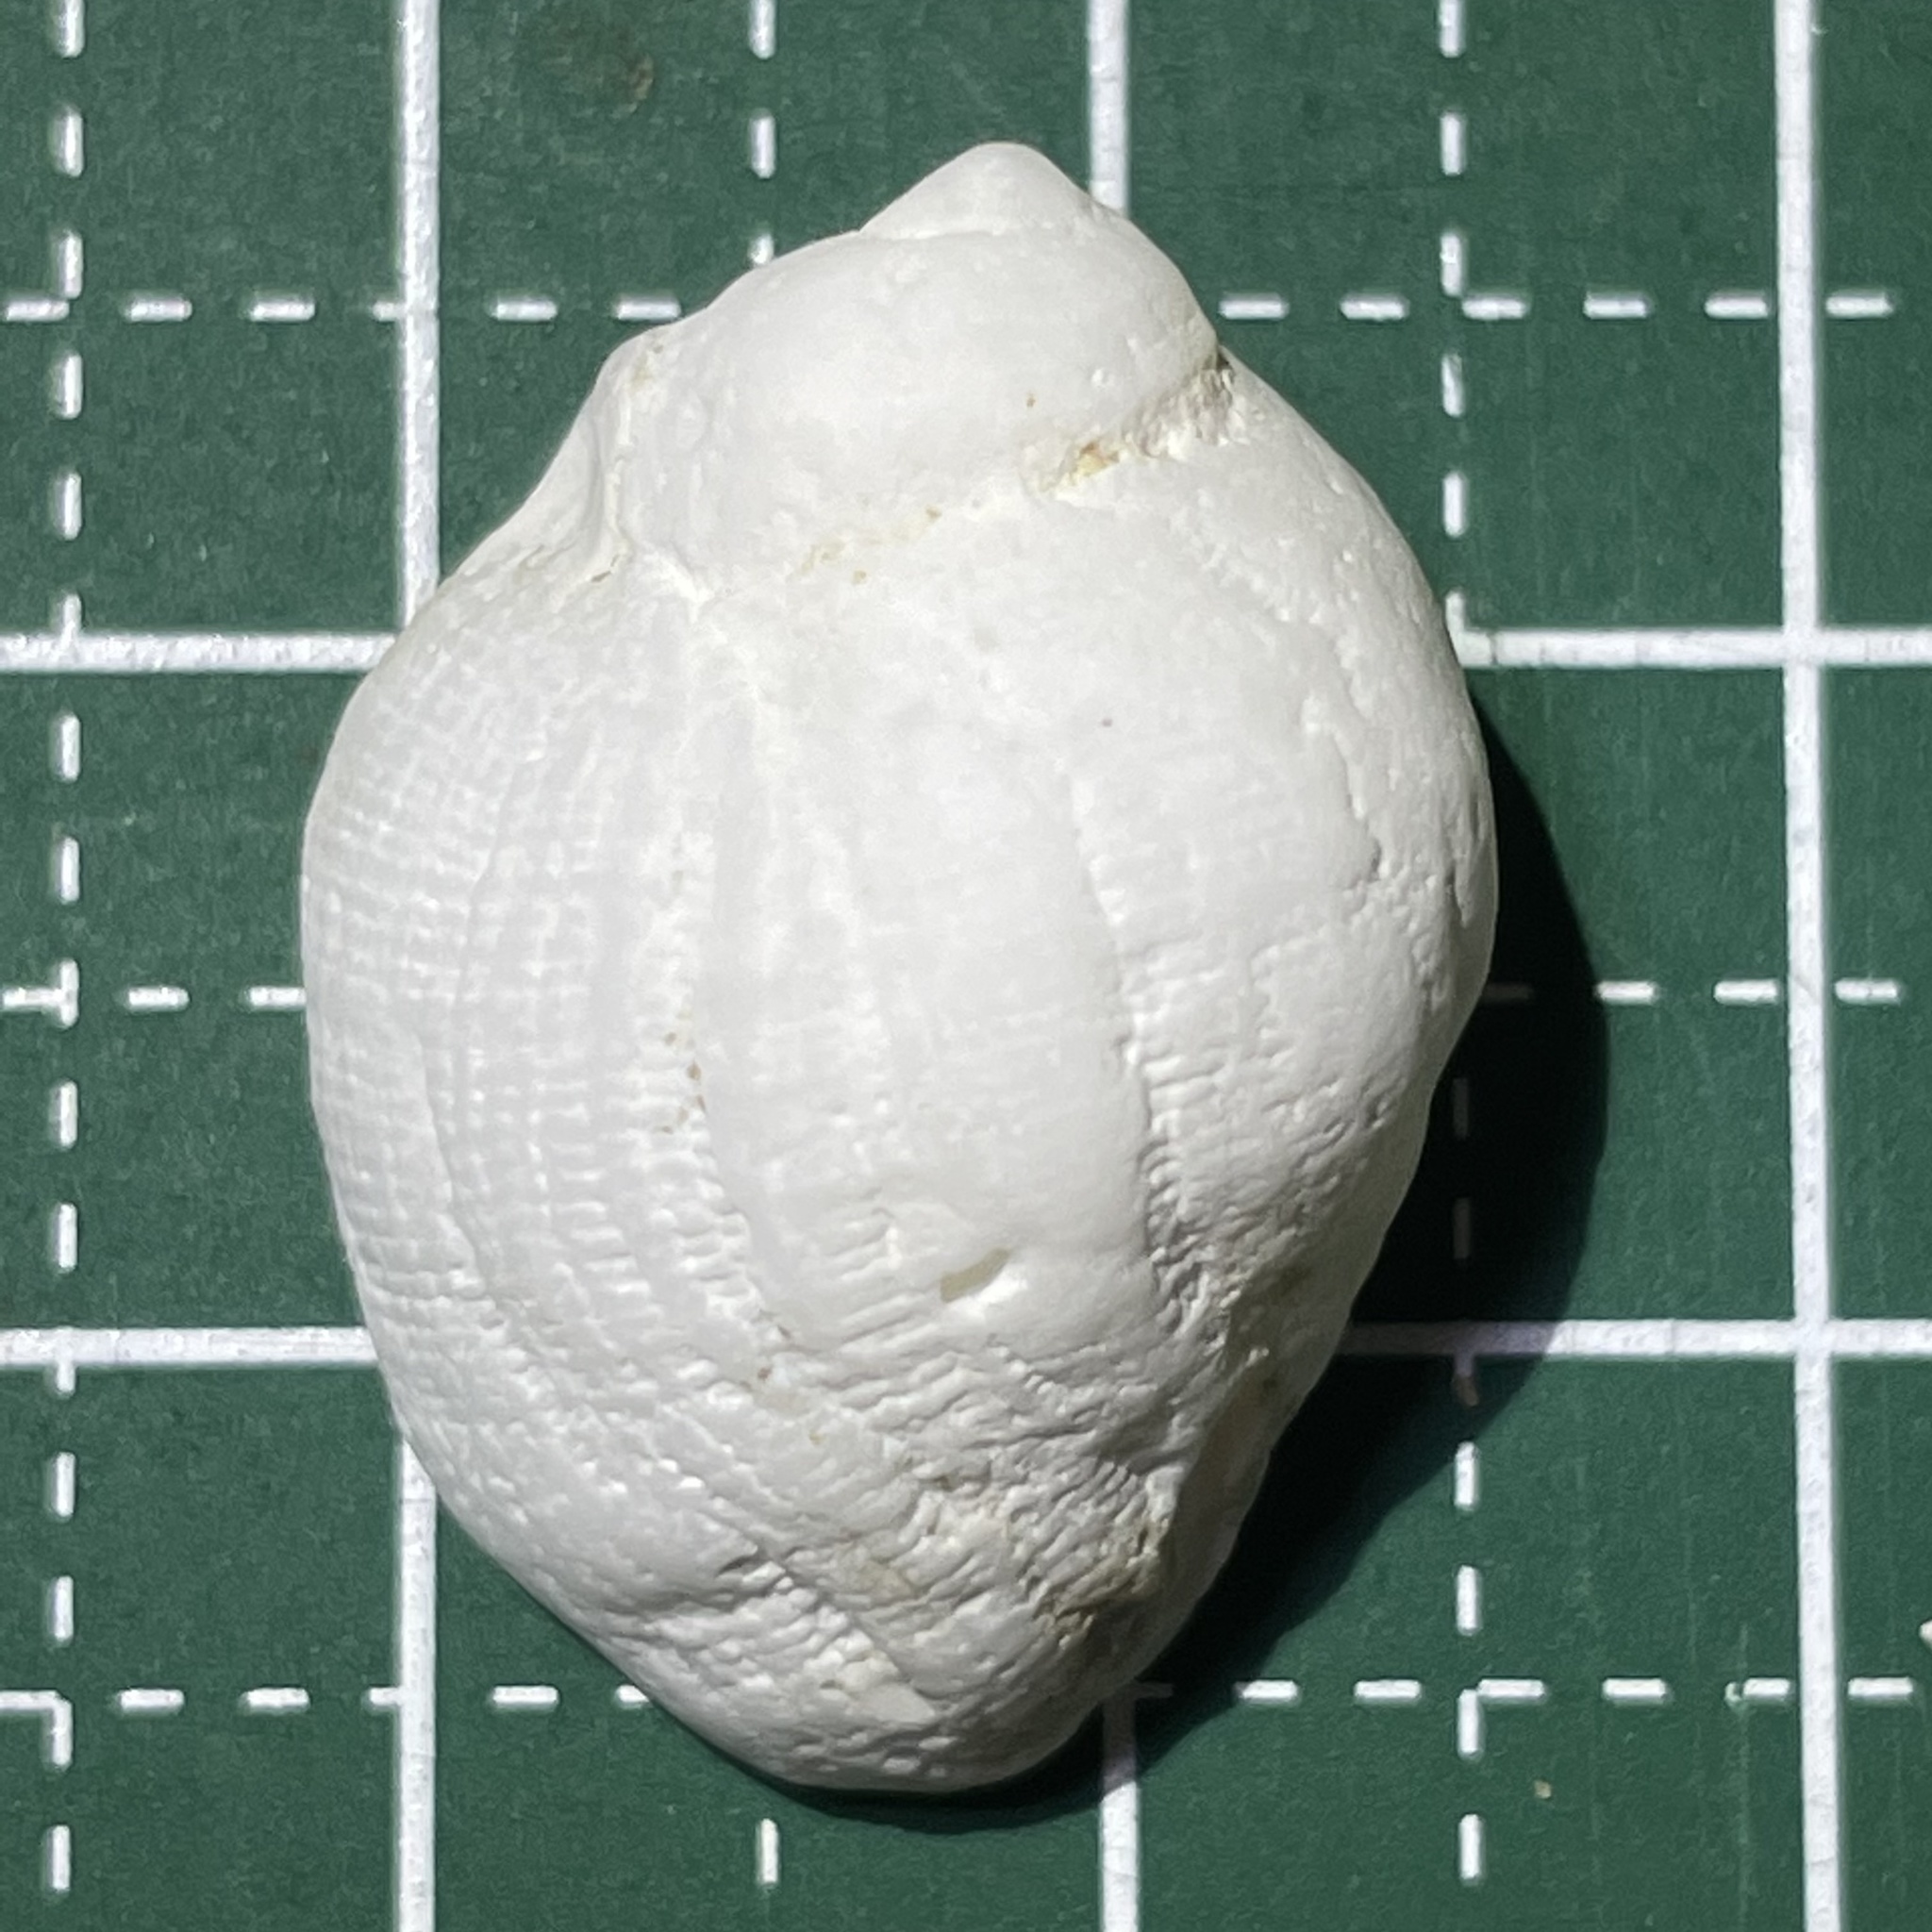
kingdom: Animalia
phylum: Mollusca
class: Gastropoda
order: Neogastropoda
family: Muricidae
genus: Galeropsis
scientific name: Galeropsis monodonta
